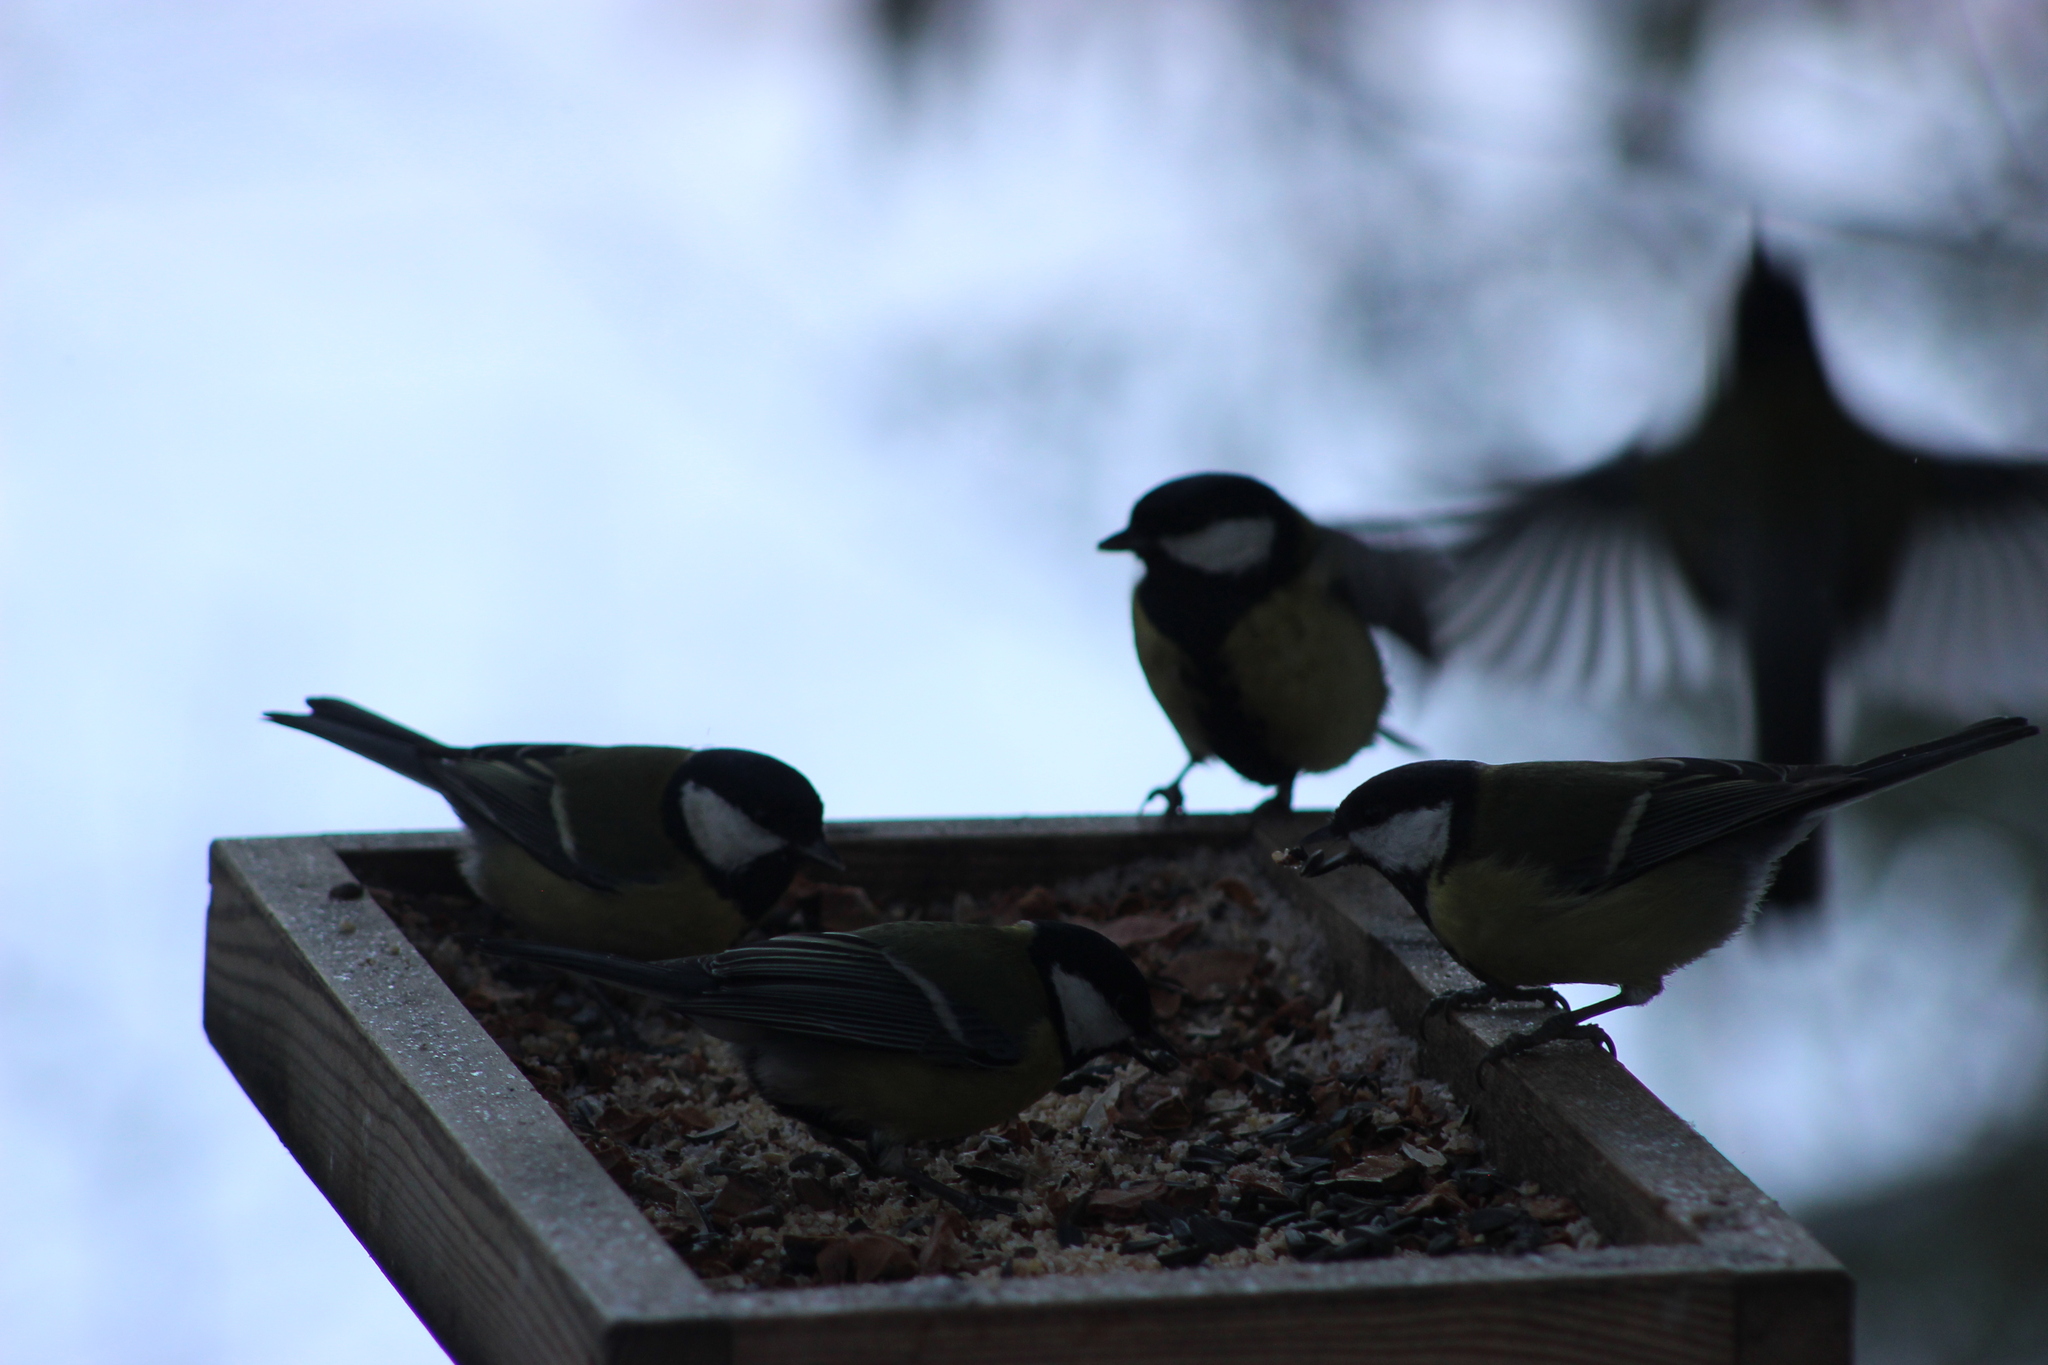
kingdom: Animalia
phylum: Chordata
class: Aves
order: Passeriformes
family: Paridae
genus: Parus
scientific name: Parus major
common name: Great tit
